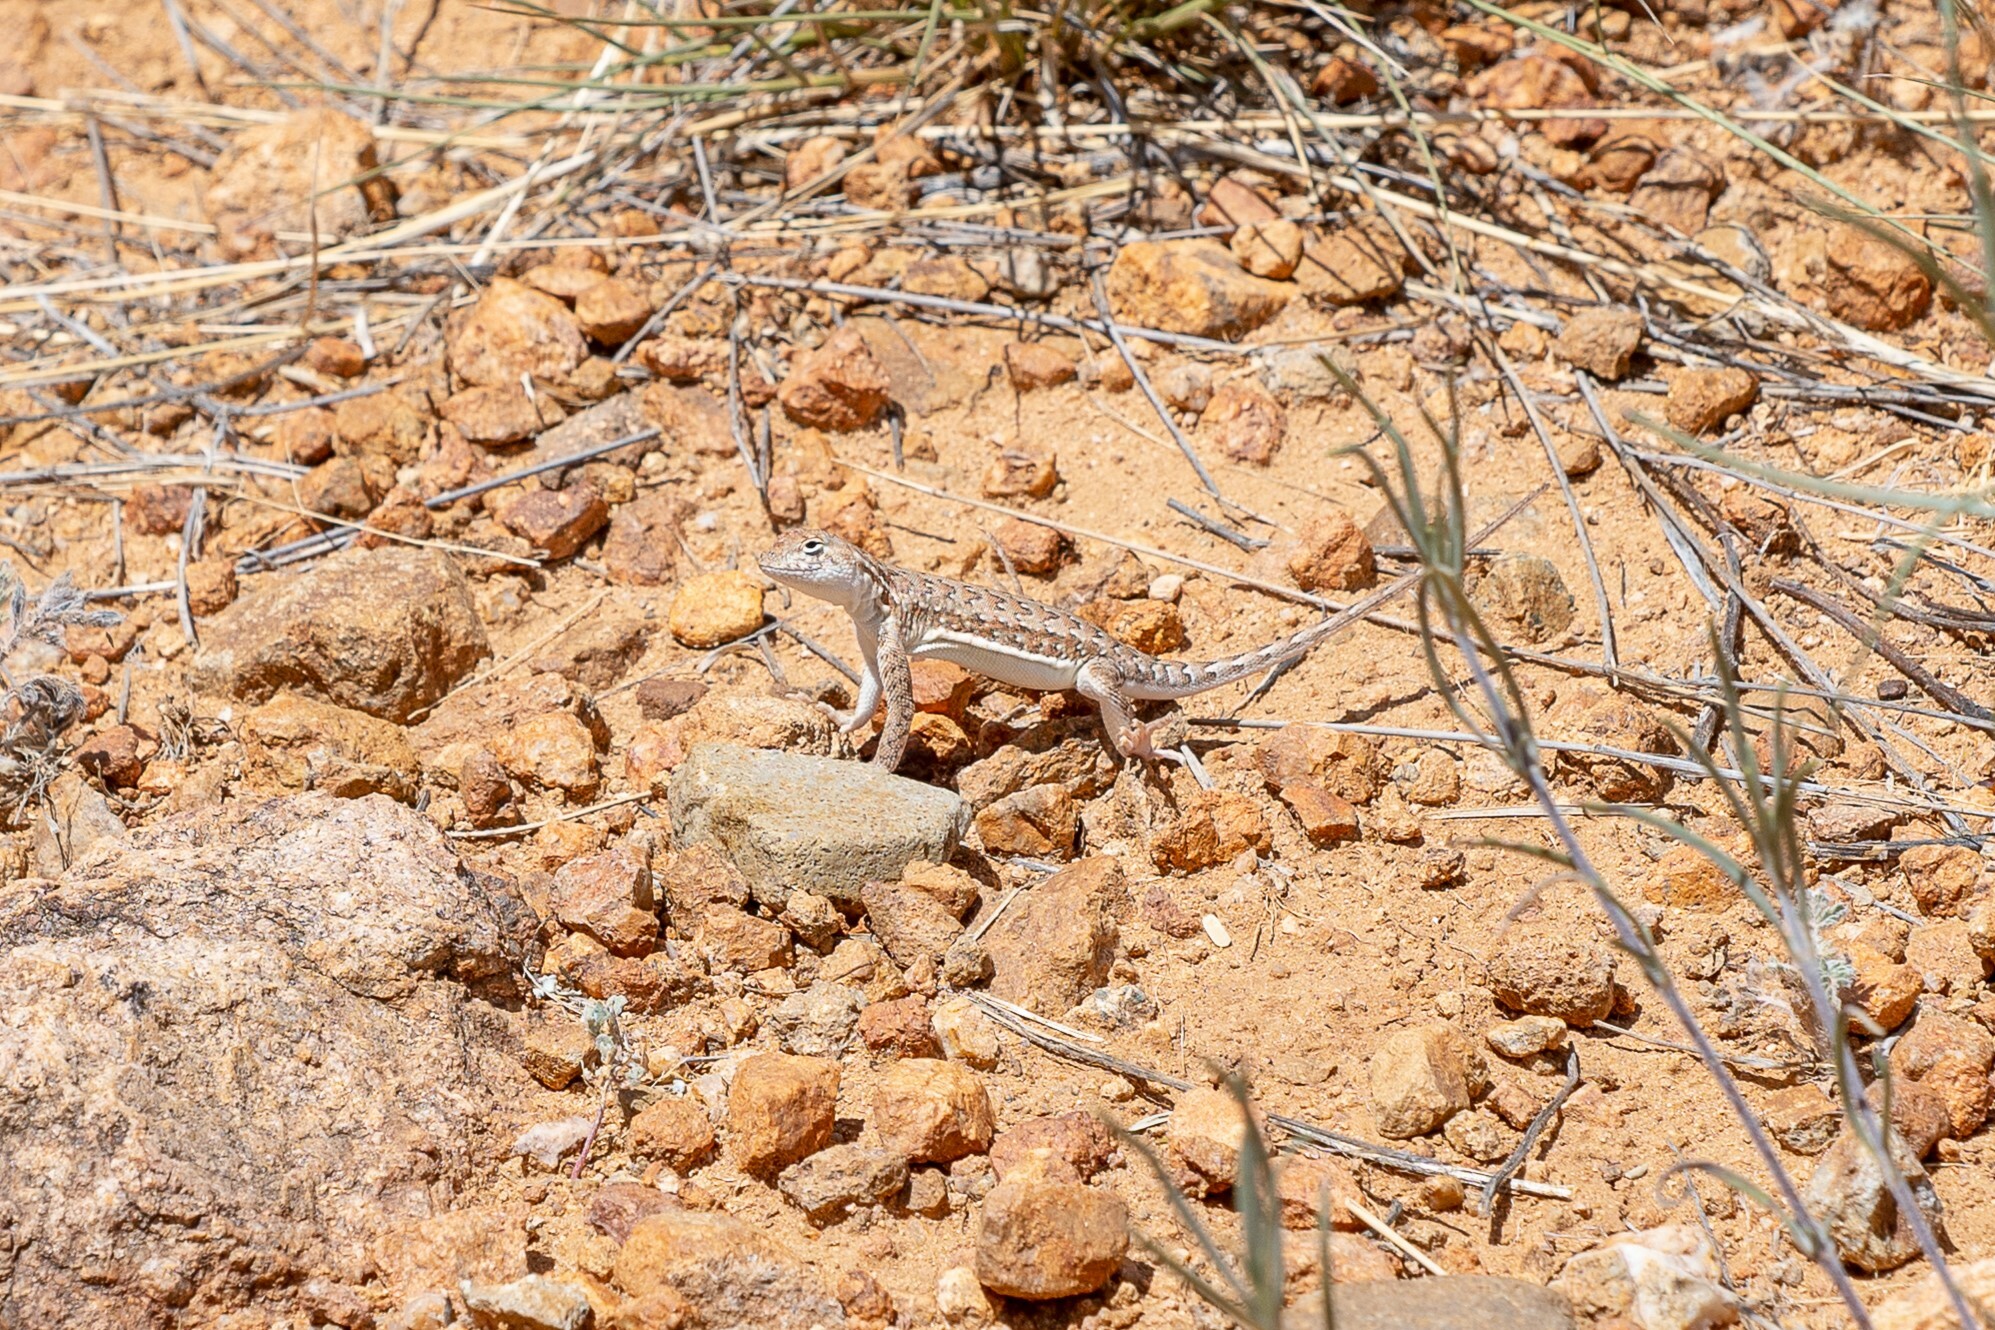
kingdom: Animalia
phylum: Chordata
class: Squamata
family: Phrynosomatidae
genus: Holbrookia
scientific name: Holbrookia elegans
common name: Elegant earless lizard
